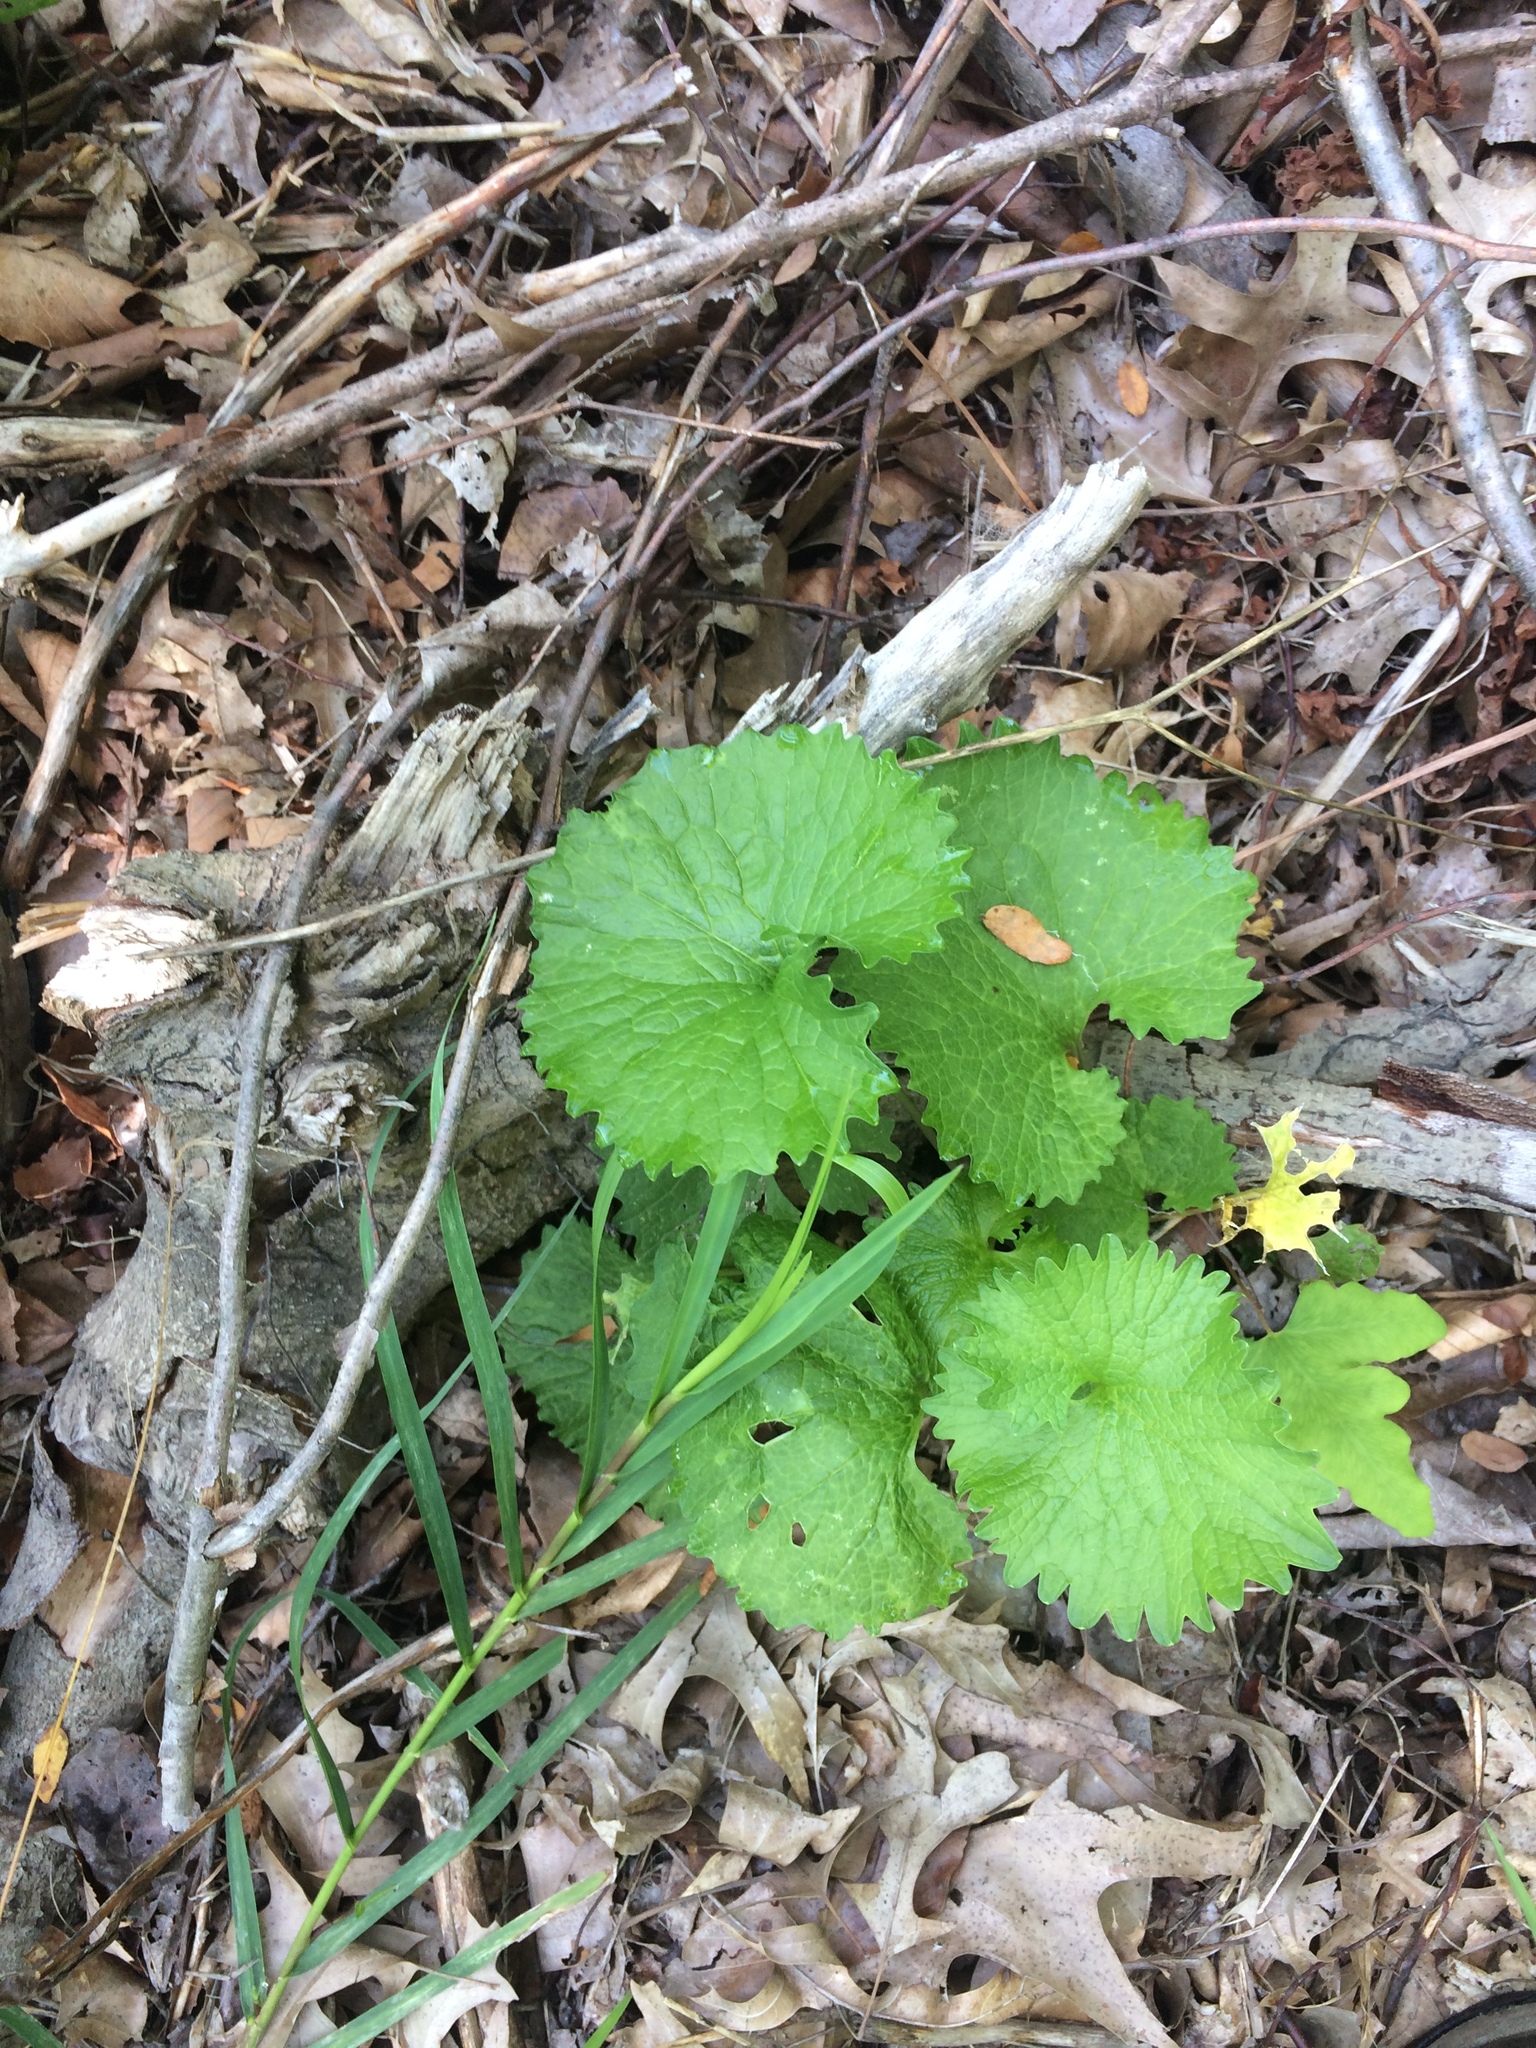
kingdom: Plantae
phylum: Tracheophyta
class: Magnoliopsida
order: Brassicales
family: Brassicaceae
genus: Alliaria
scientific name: Alliaria petiolata
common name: Garlic mustard
